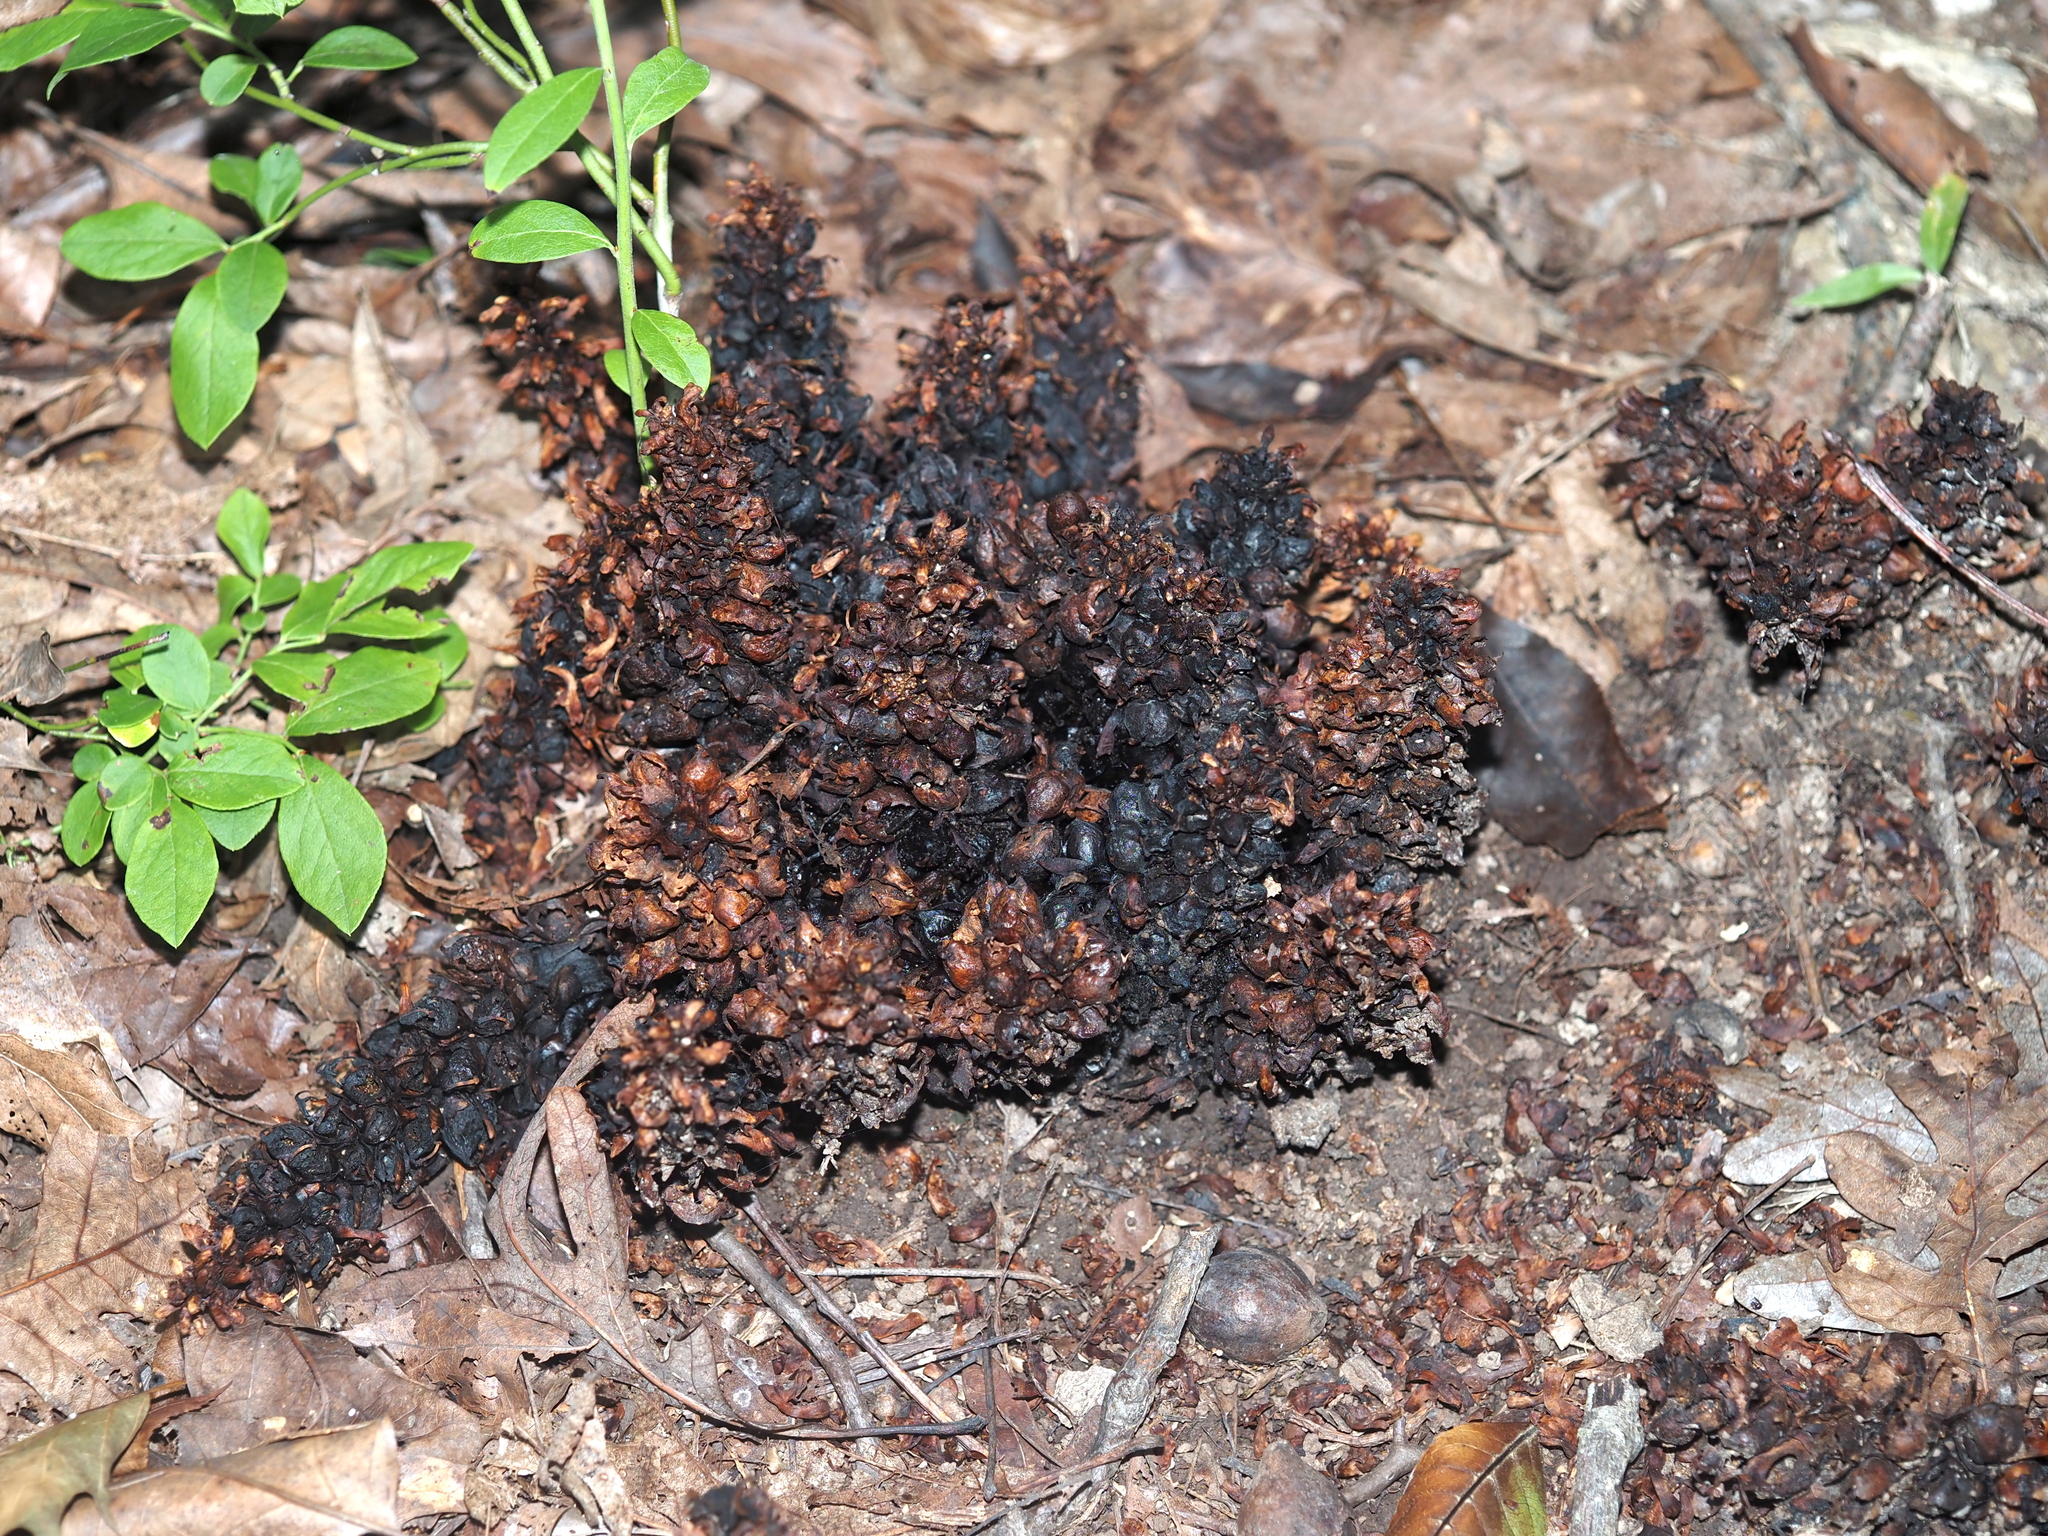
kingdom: Plantae
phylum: Tracheophyta
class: Magnoliopsida
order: Lamiales
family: Orobanchaceae
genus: Conopholis
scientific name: Conopholis americana
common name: American cancer-root
